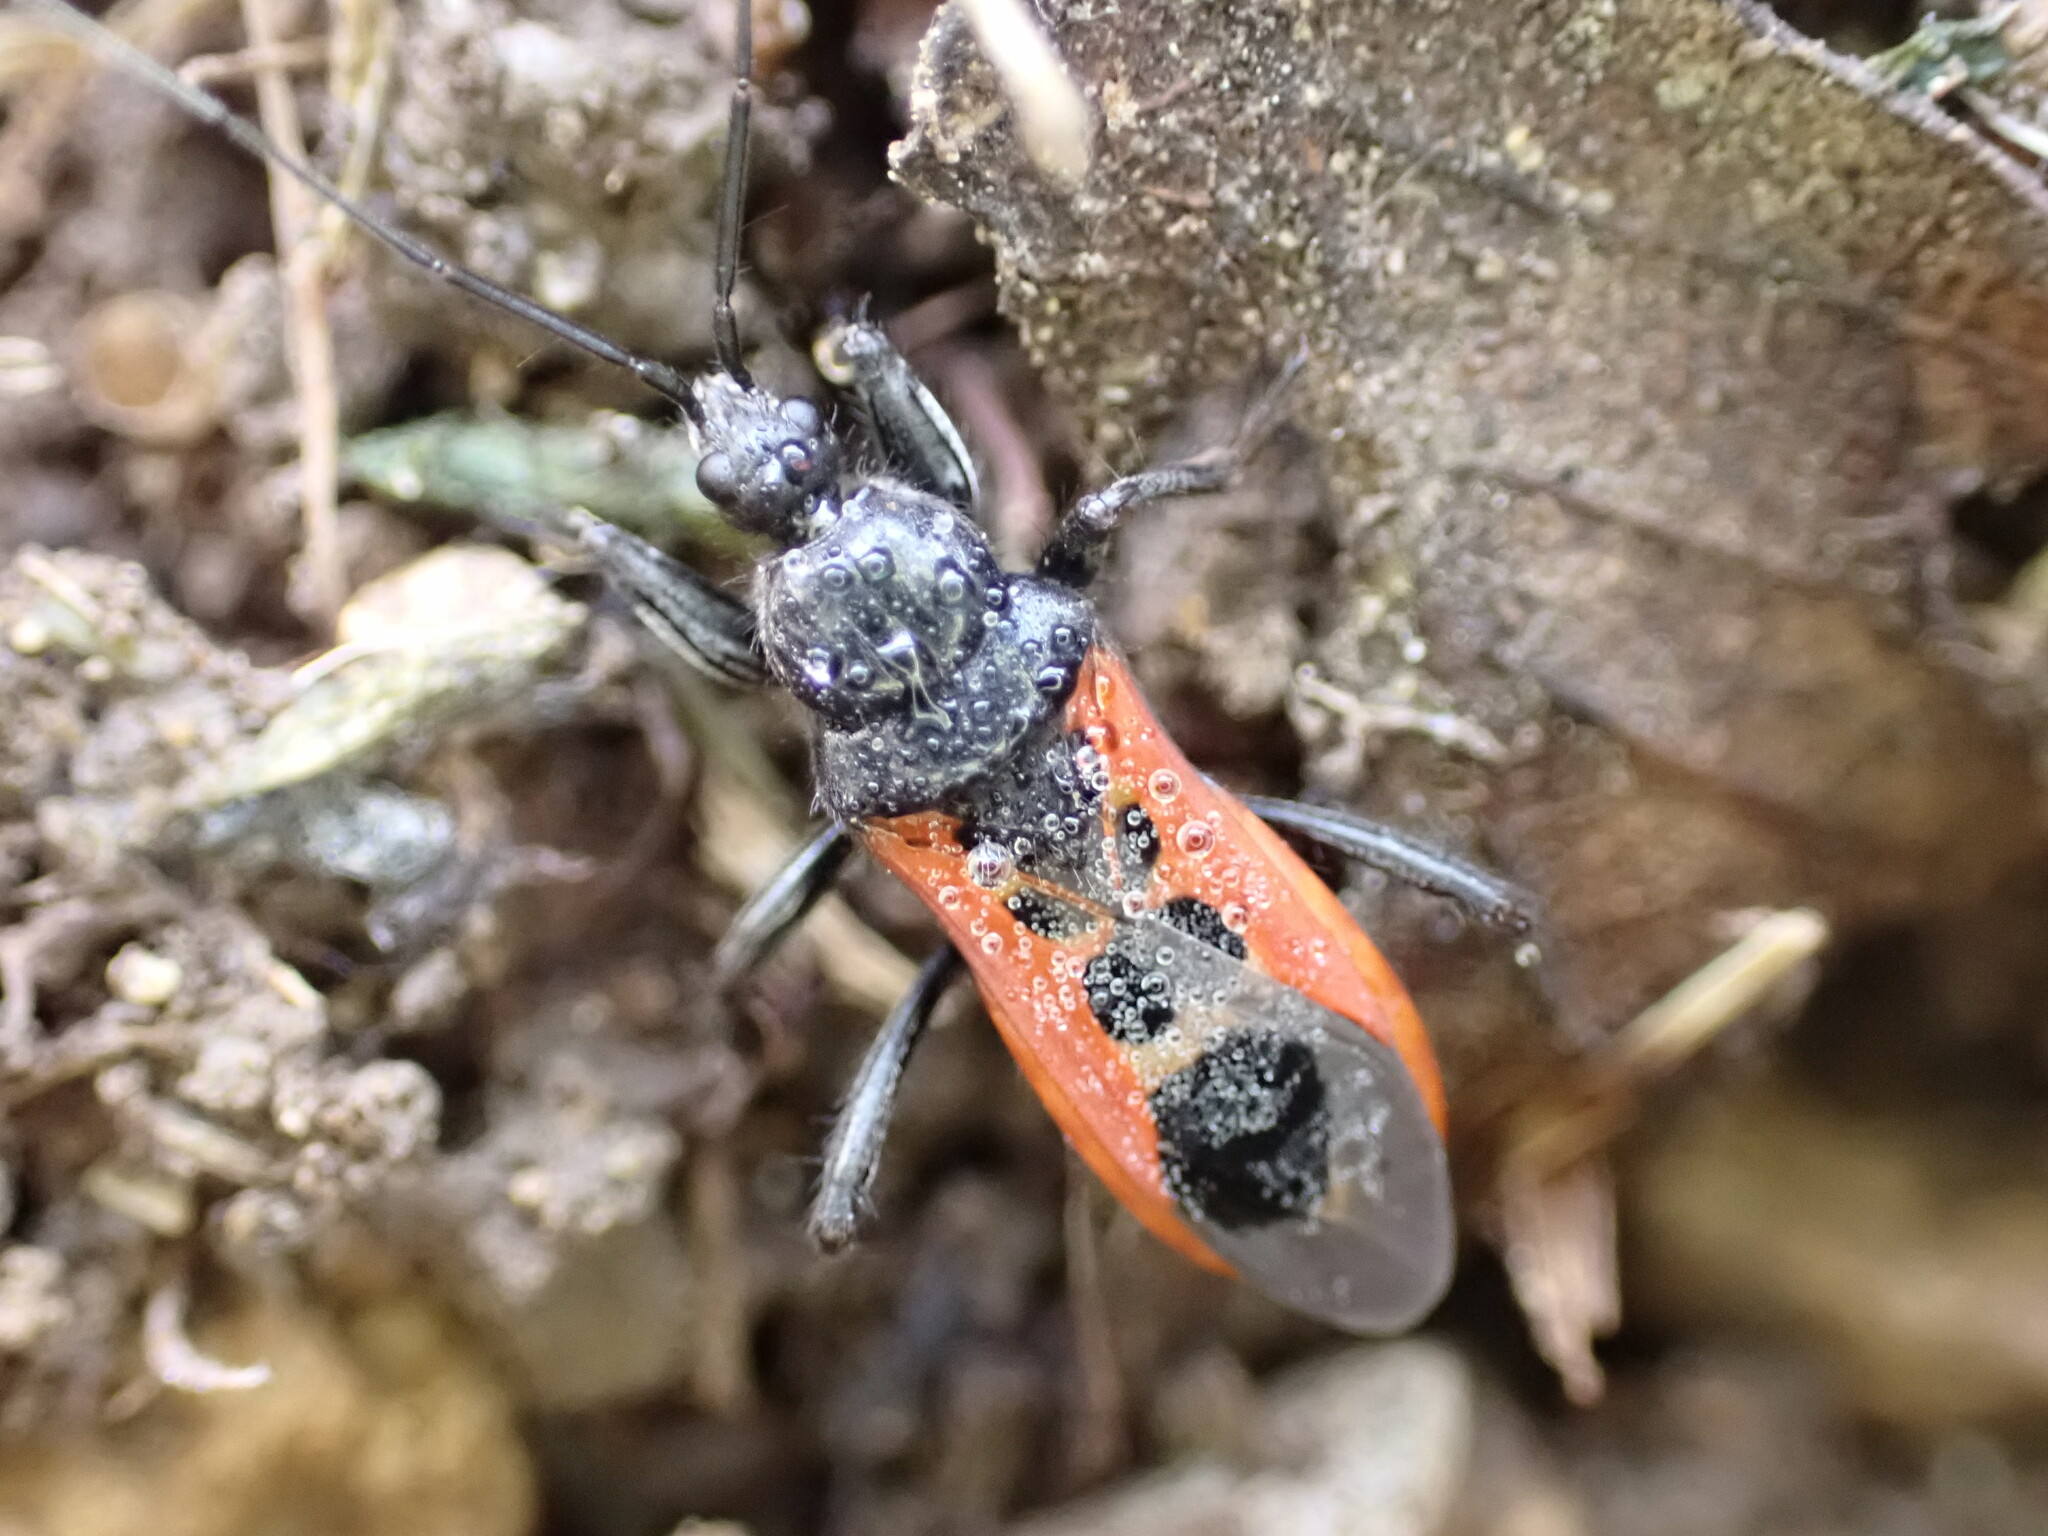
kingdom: Animalia
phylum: Arthropoda
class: Insecta
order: Hemiptera
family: Reduviidae
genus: Peirates
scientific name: Peirates stridulus
